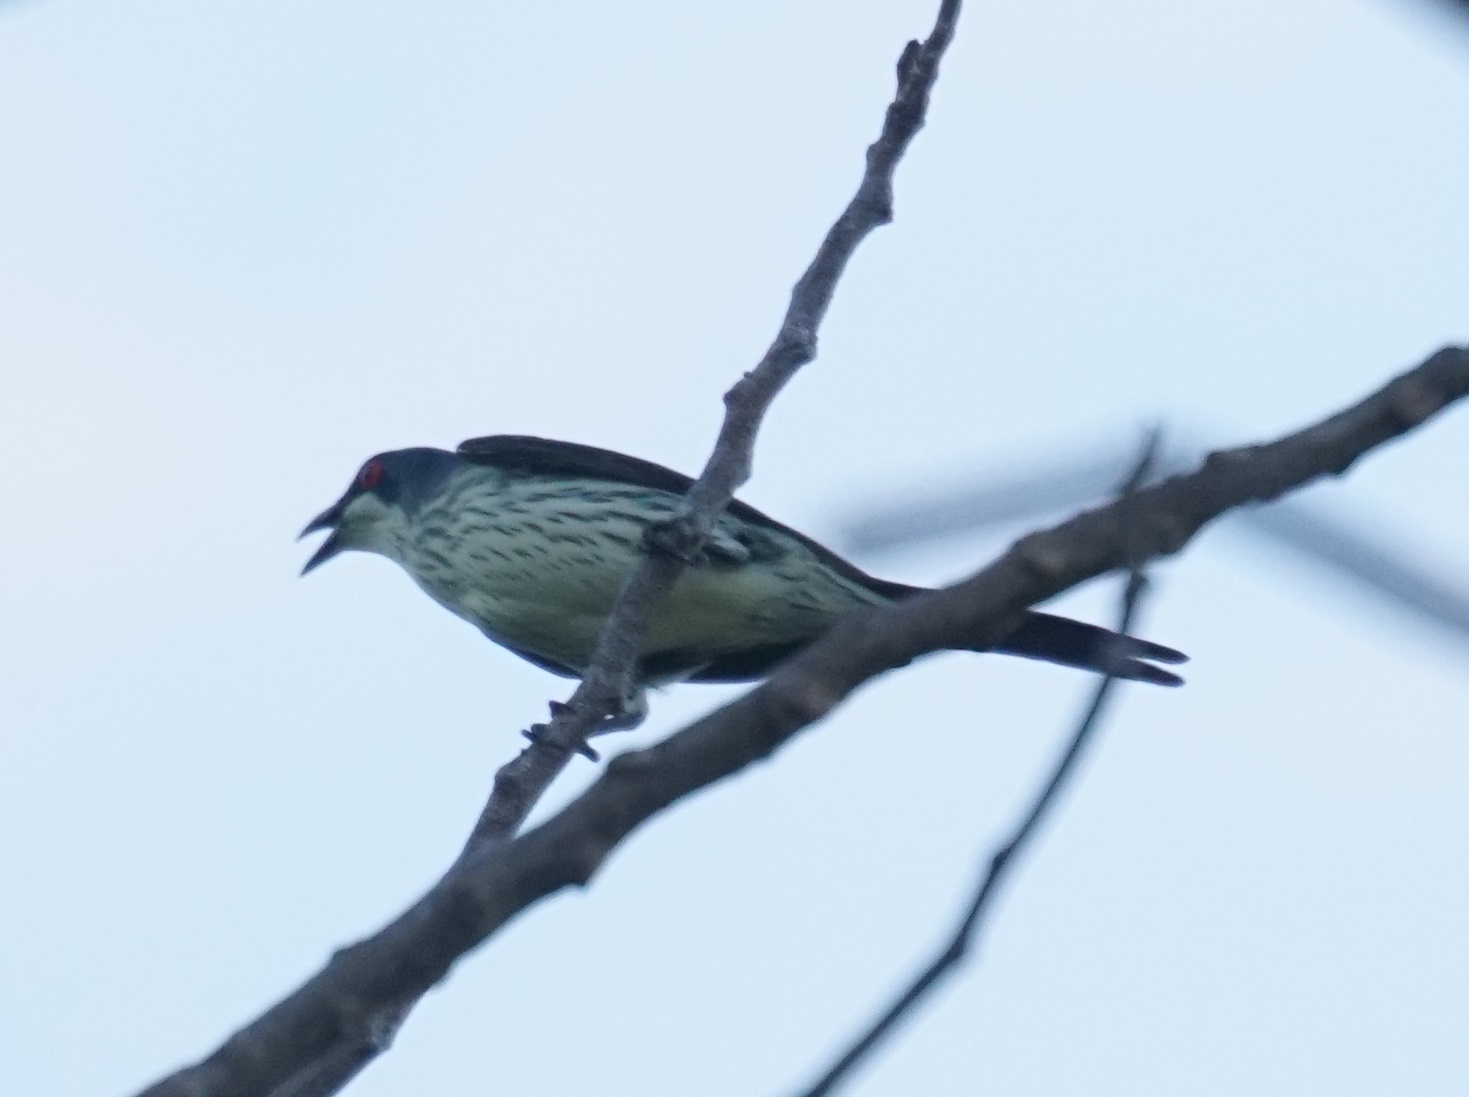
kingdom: Animalia
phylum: Chordata
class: Aves
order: Passeriformes
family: Sturnidae
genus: Aplonis
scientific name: Aplonis metallica
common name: Metallic starling
